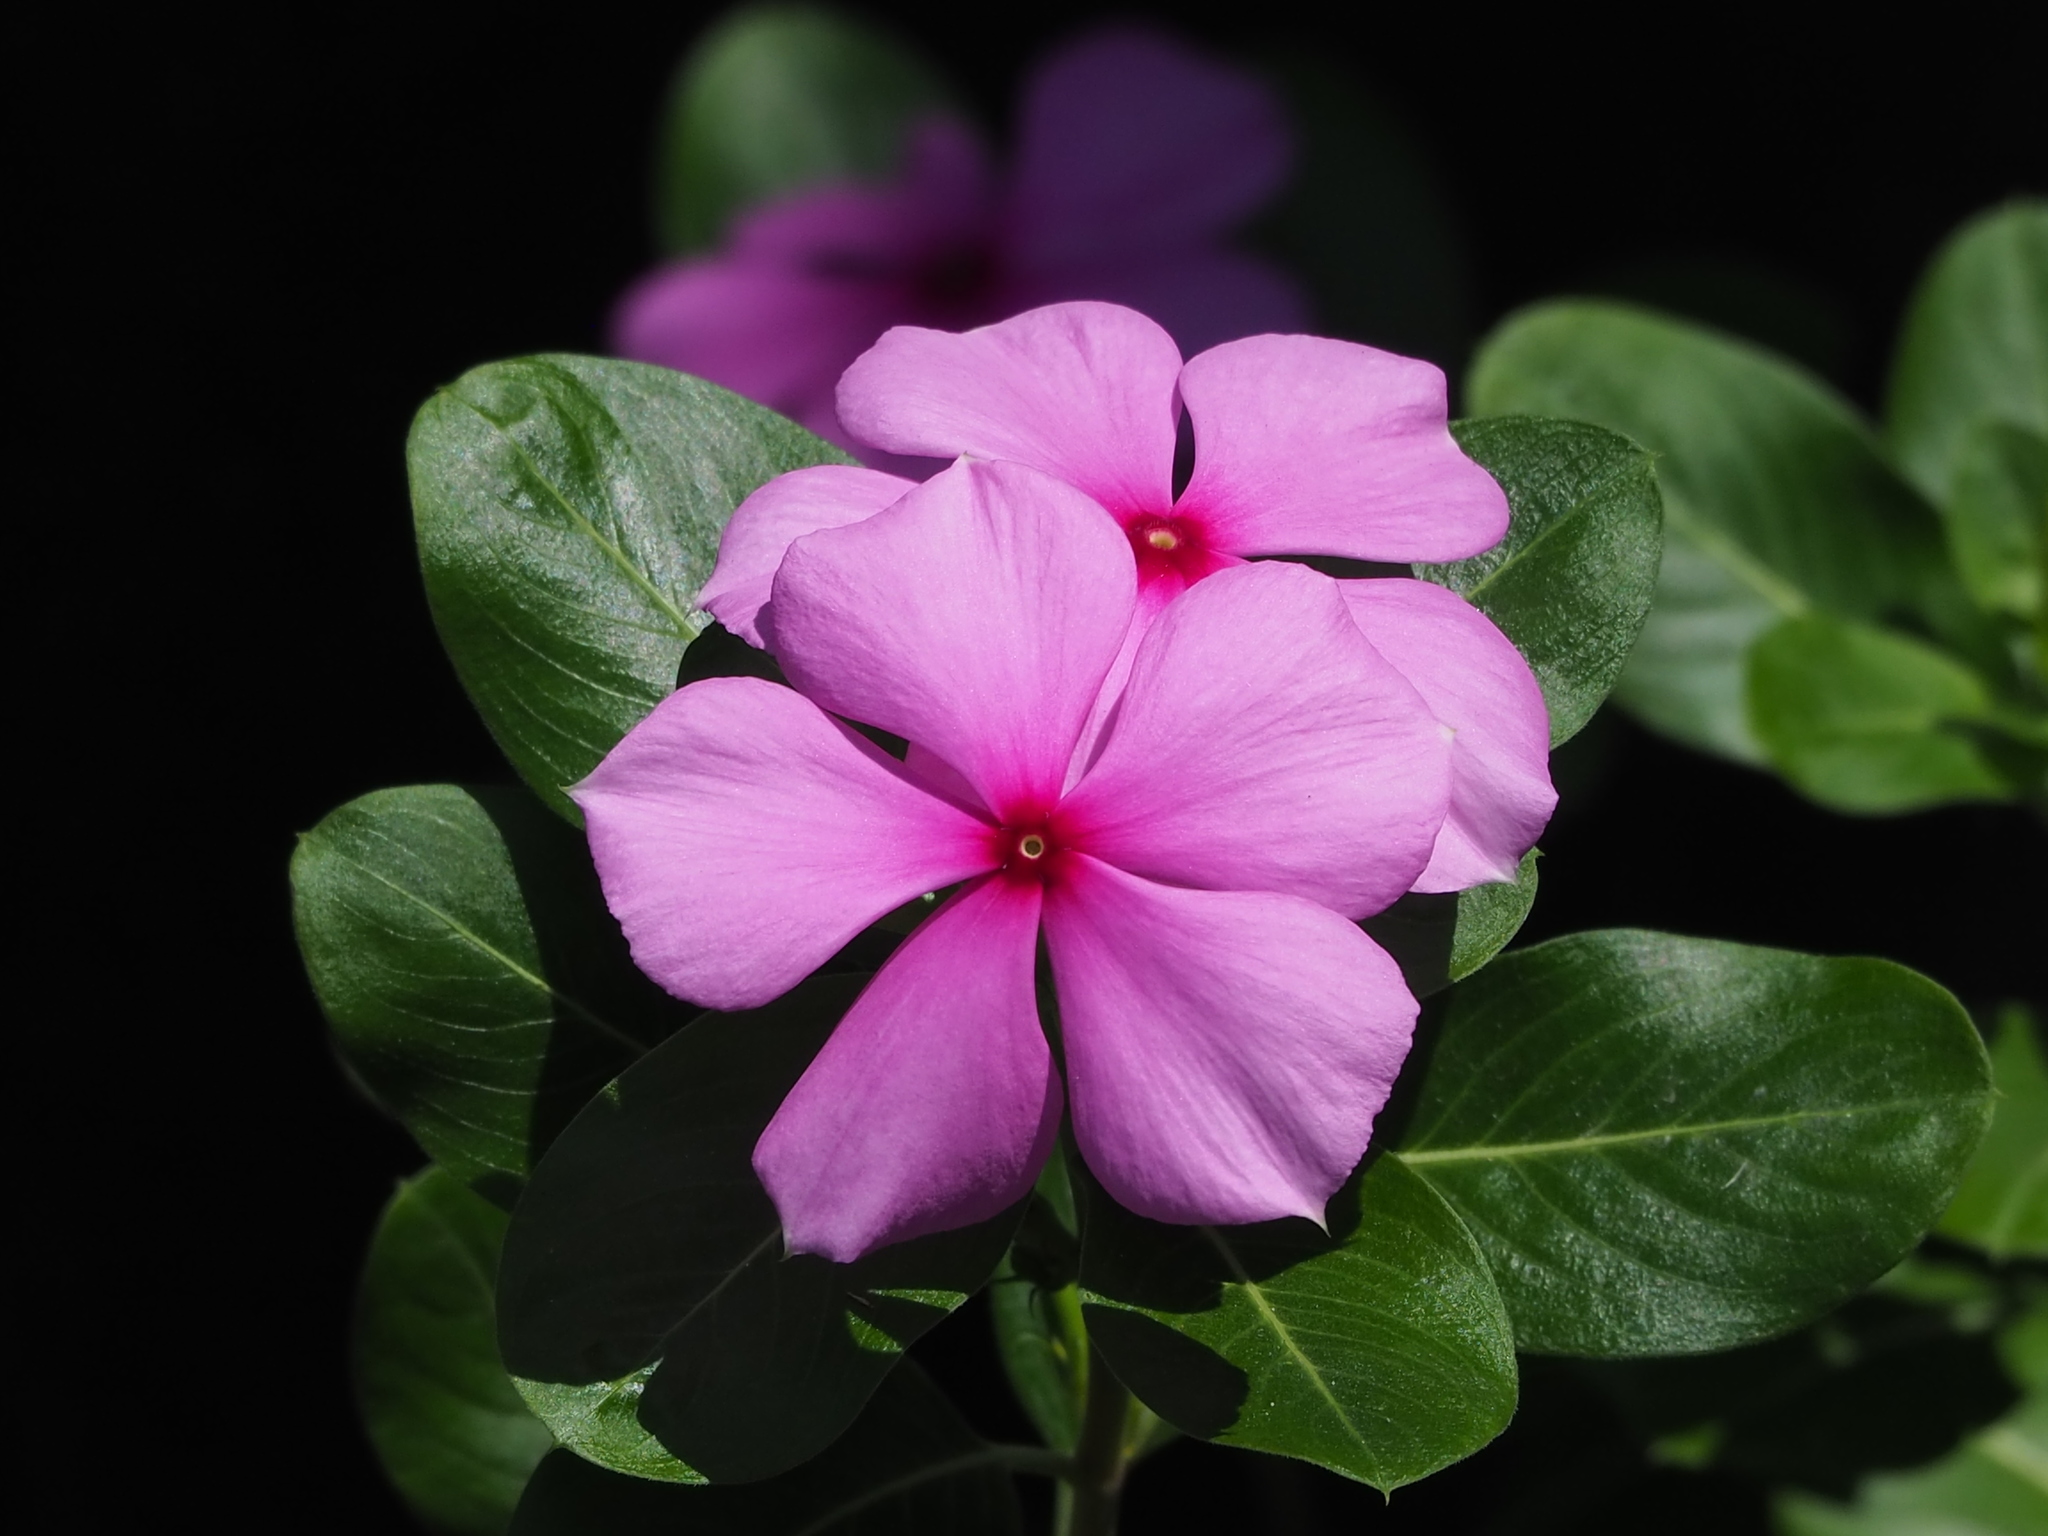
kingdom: Plantae
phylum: Tracheophyta
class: Magnoliopsida
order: Gentianales
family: Apocynaceae
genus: Catharanthus
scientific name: Catharanthus roseus
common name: Madagascar periwinkle
